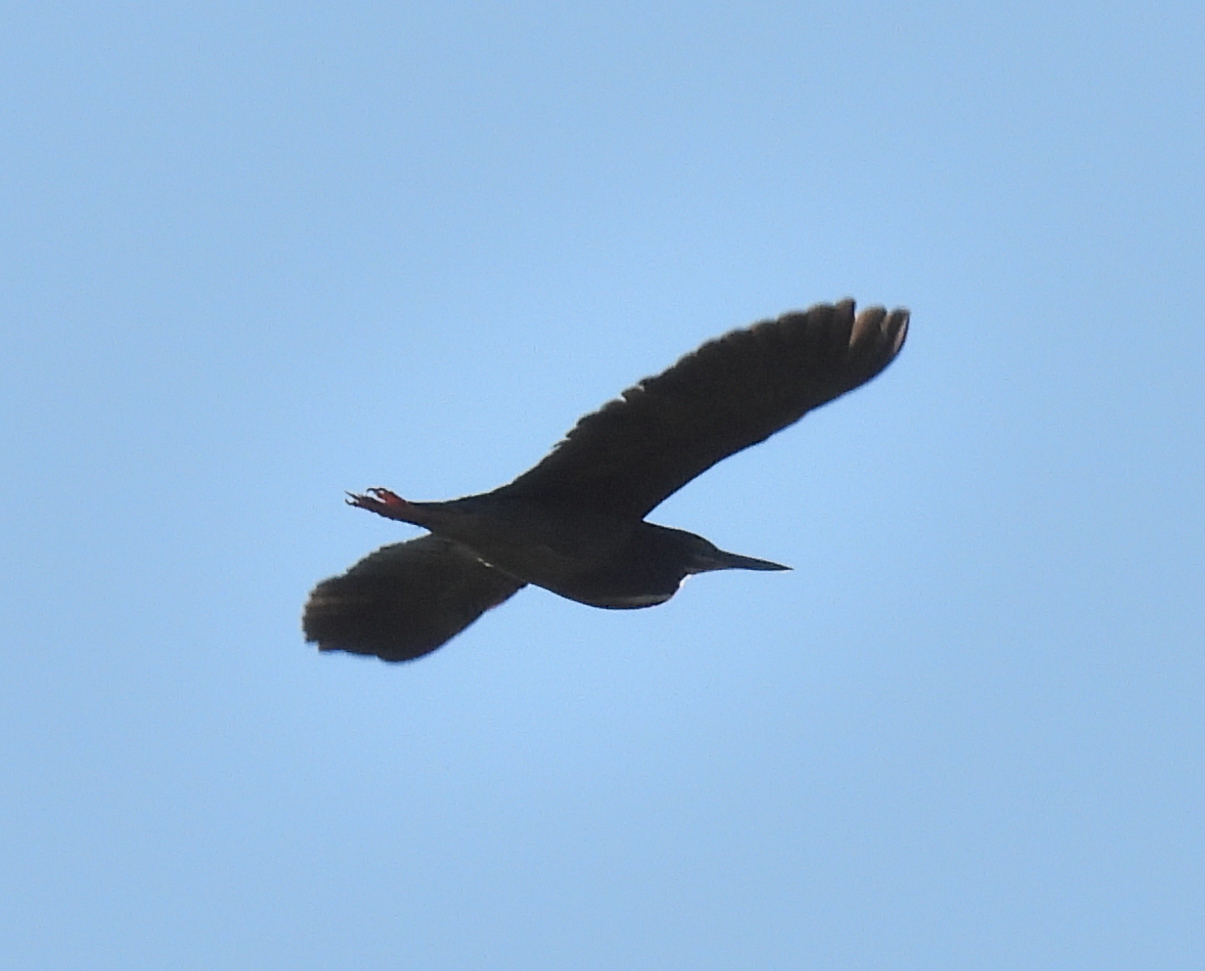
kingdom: Animalia
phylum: Chordata
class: Aves
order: Pelecaniformes
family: Ardeidae
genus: Butorides
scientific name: Butorides virescens
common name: Green heron
